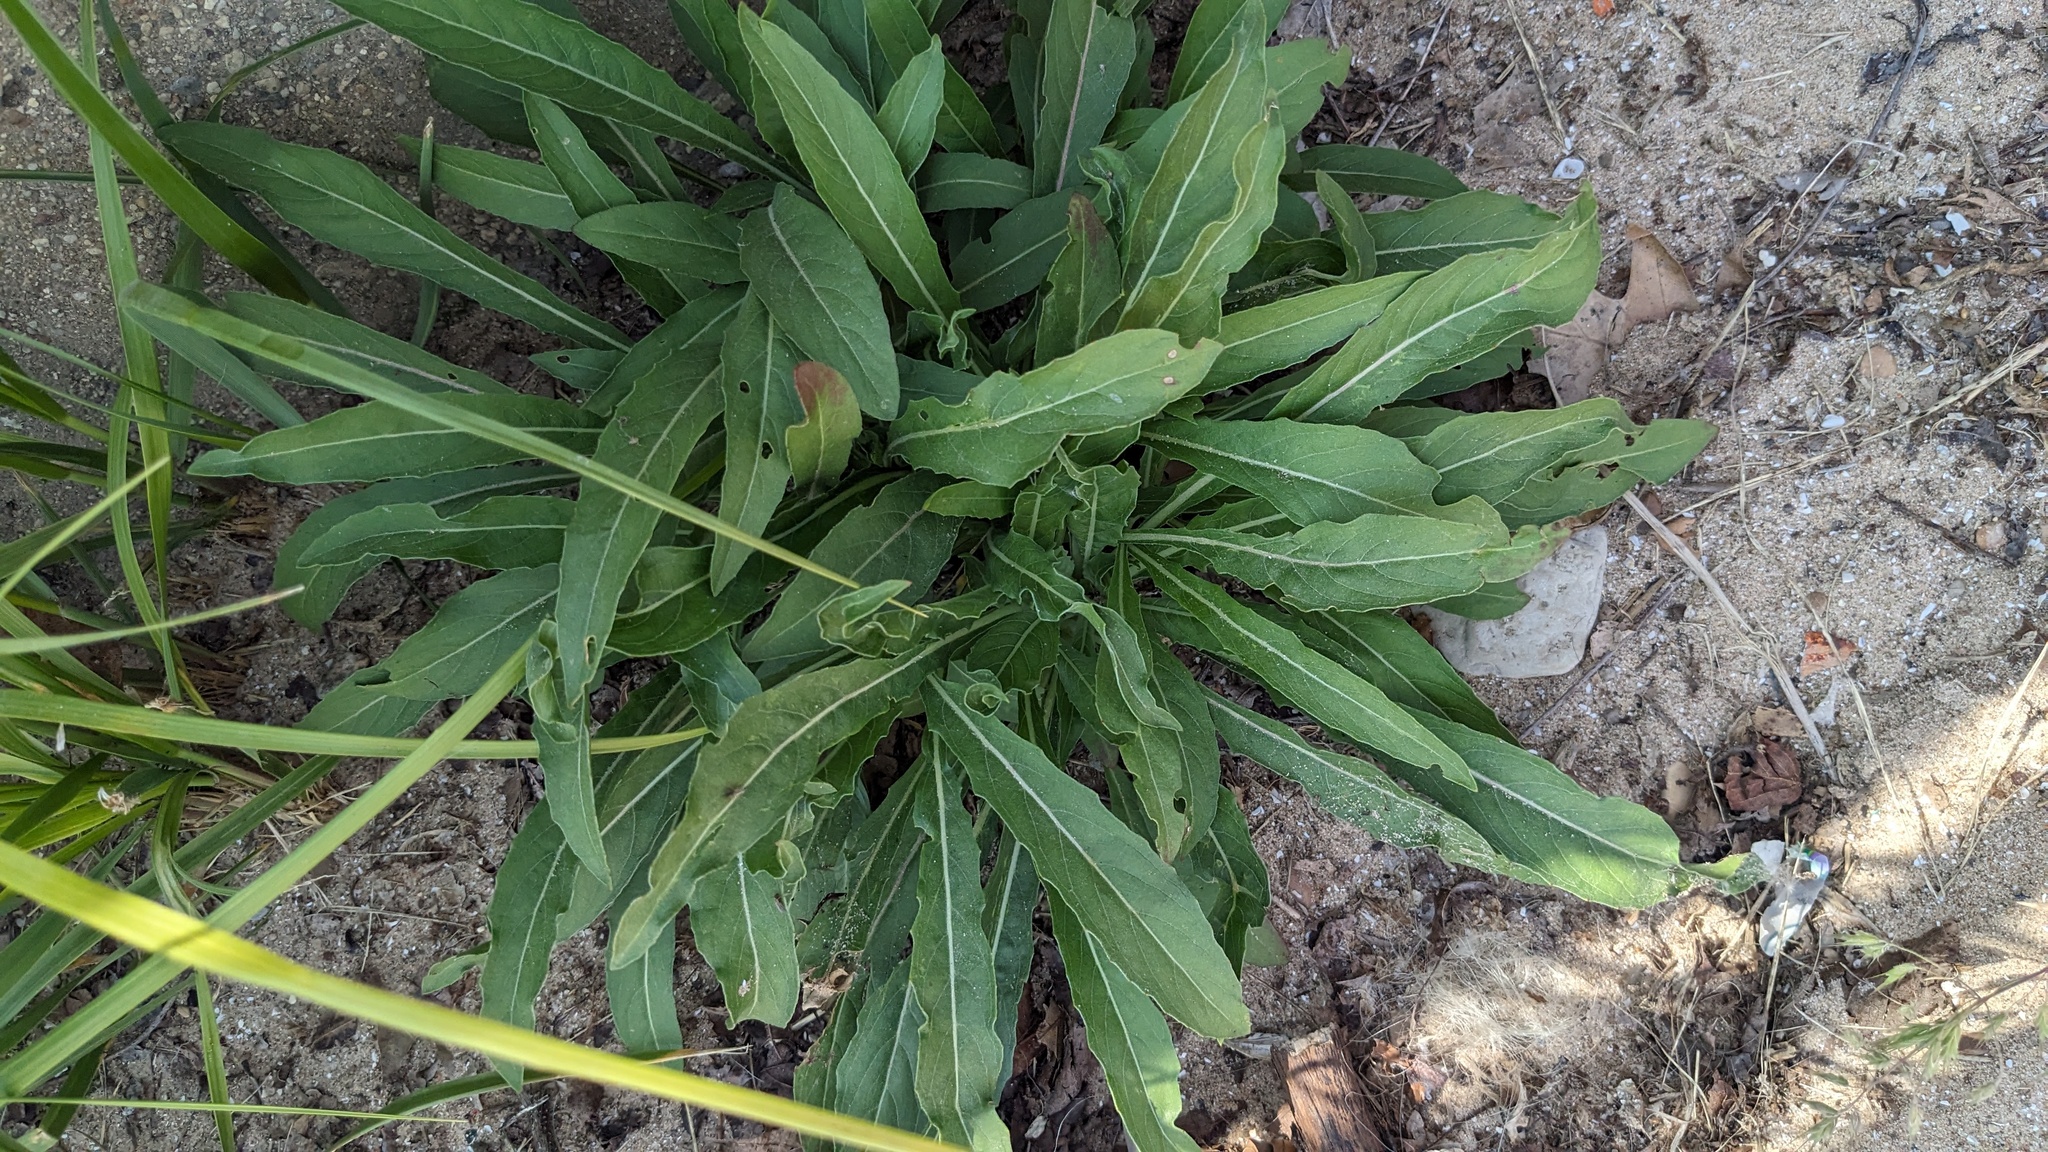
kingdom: Plantae
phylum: Tracheophyta
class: Magnoliopsida
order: Brassicales
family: Brassicaceae
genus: Hesperis
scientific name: Hesperis matronalis
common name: Dame's-violet
